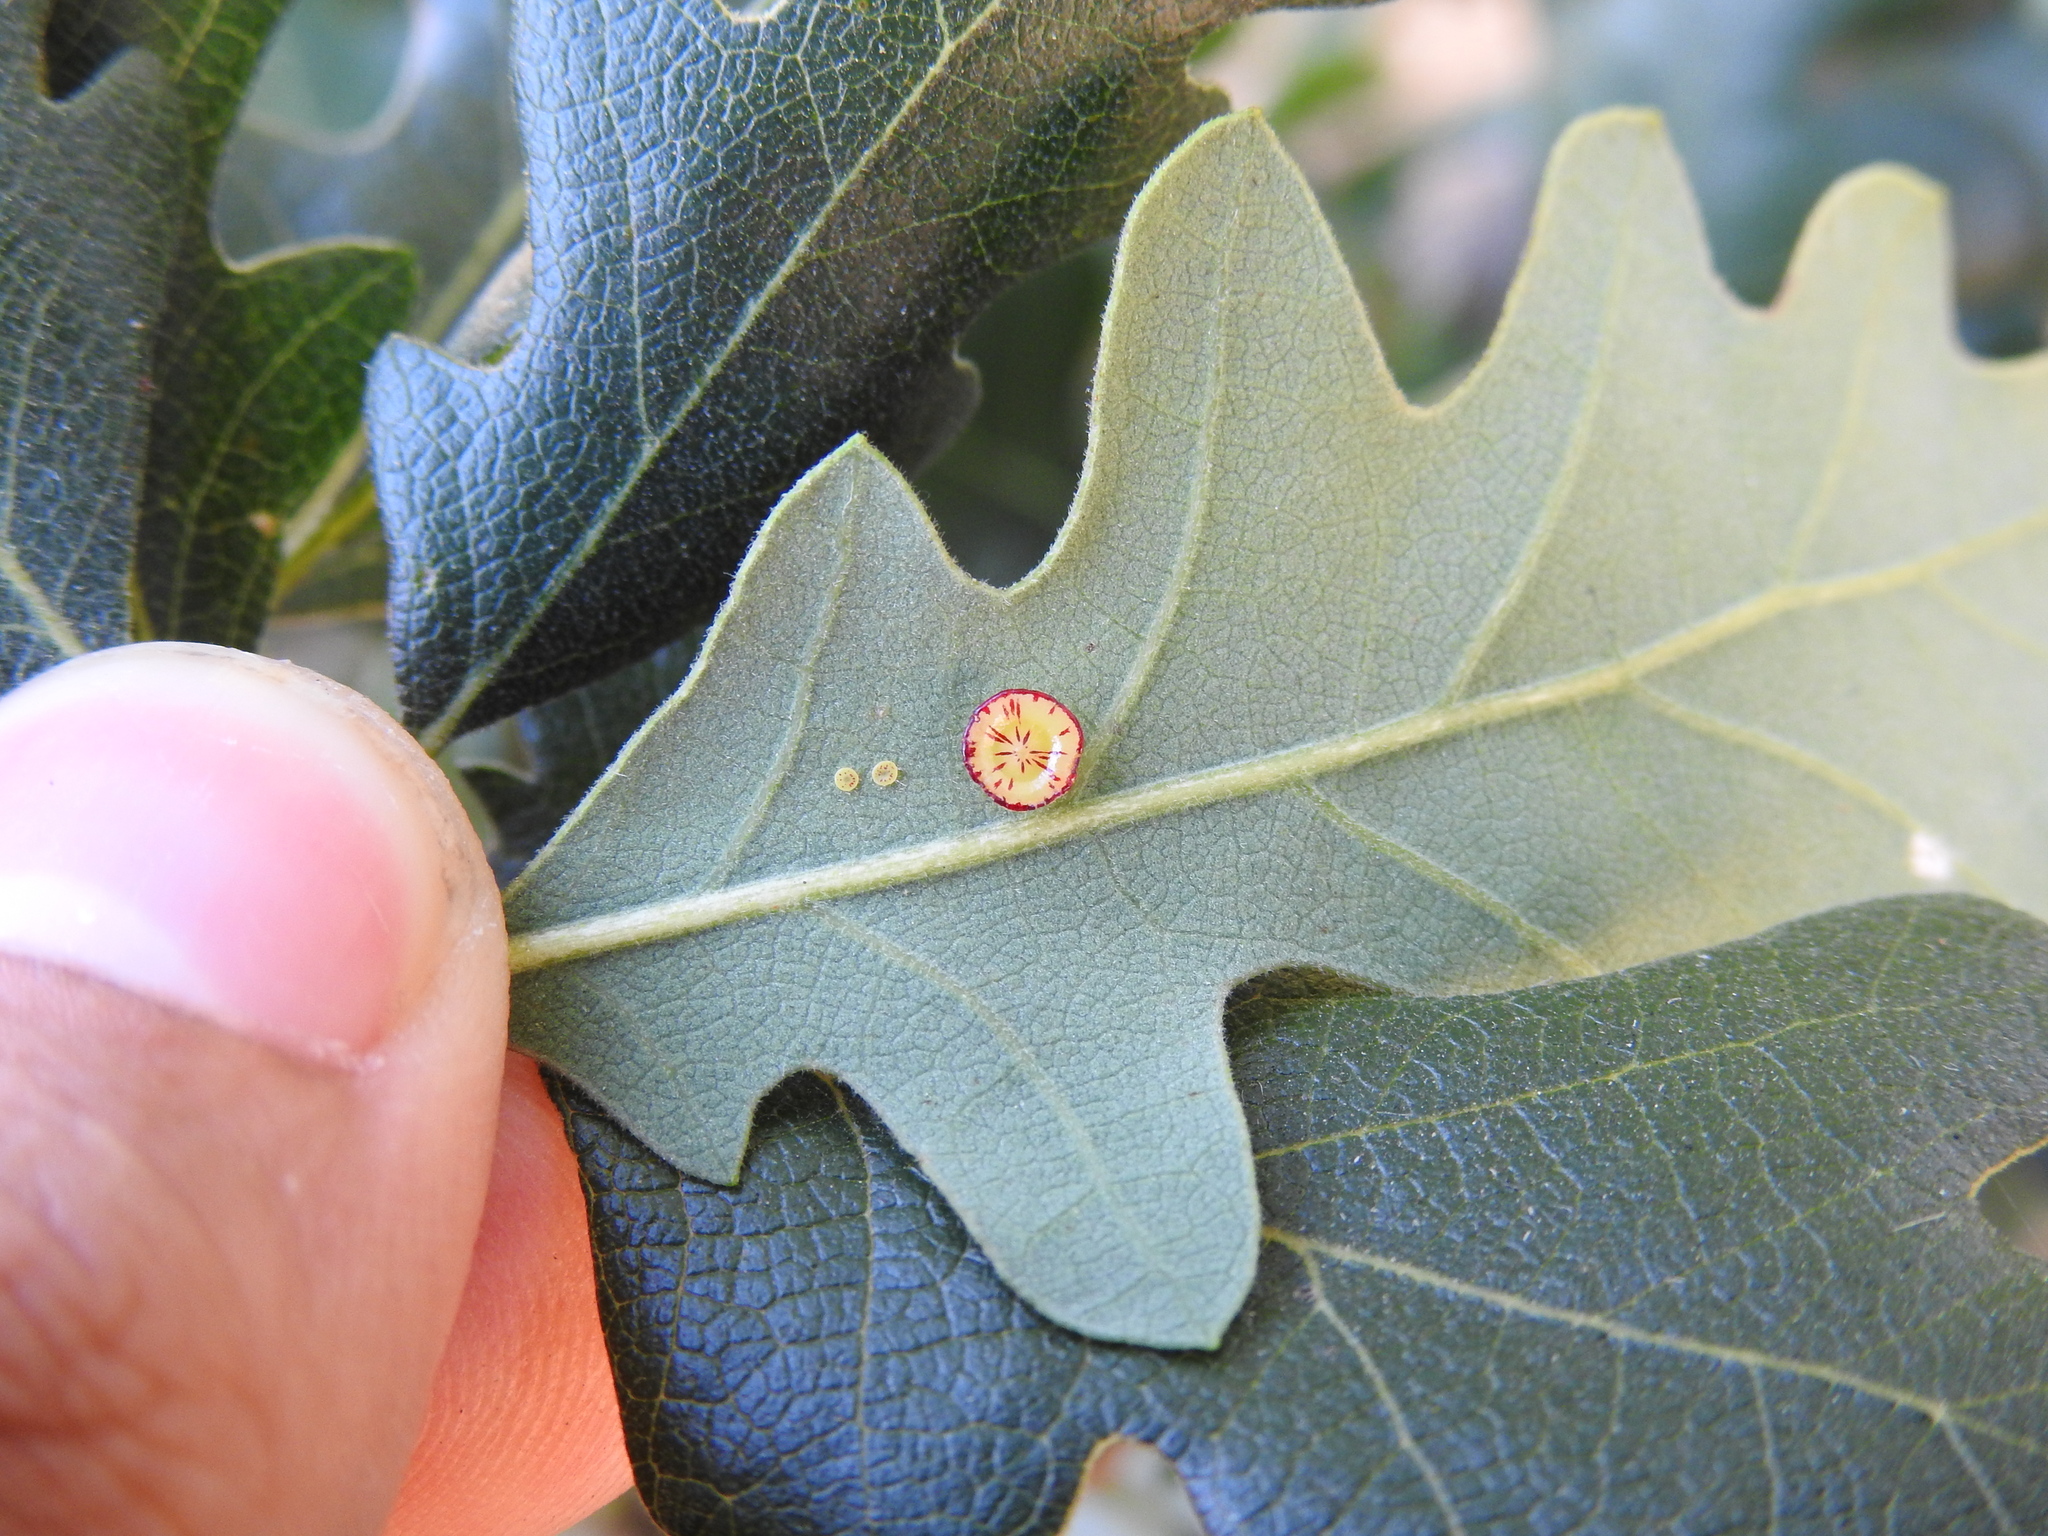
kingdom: Animalia
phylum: Arthropoda
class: Insecta
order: Hymenoptera
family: Cynipidae
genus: Andricus
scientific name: Andricus
